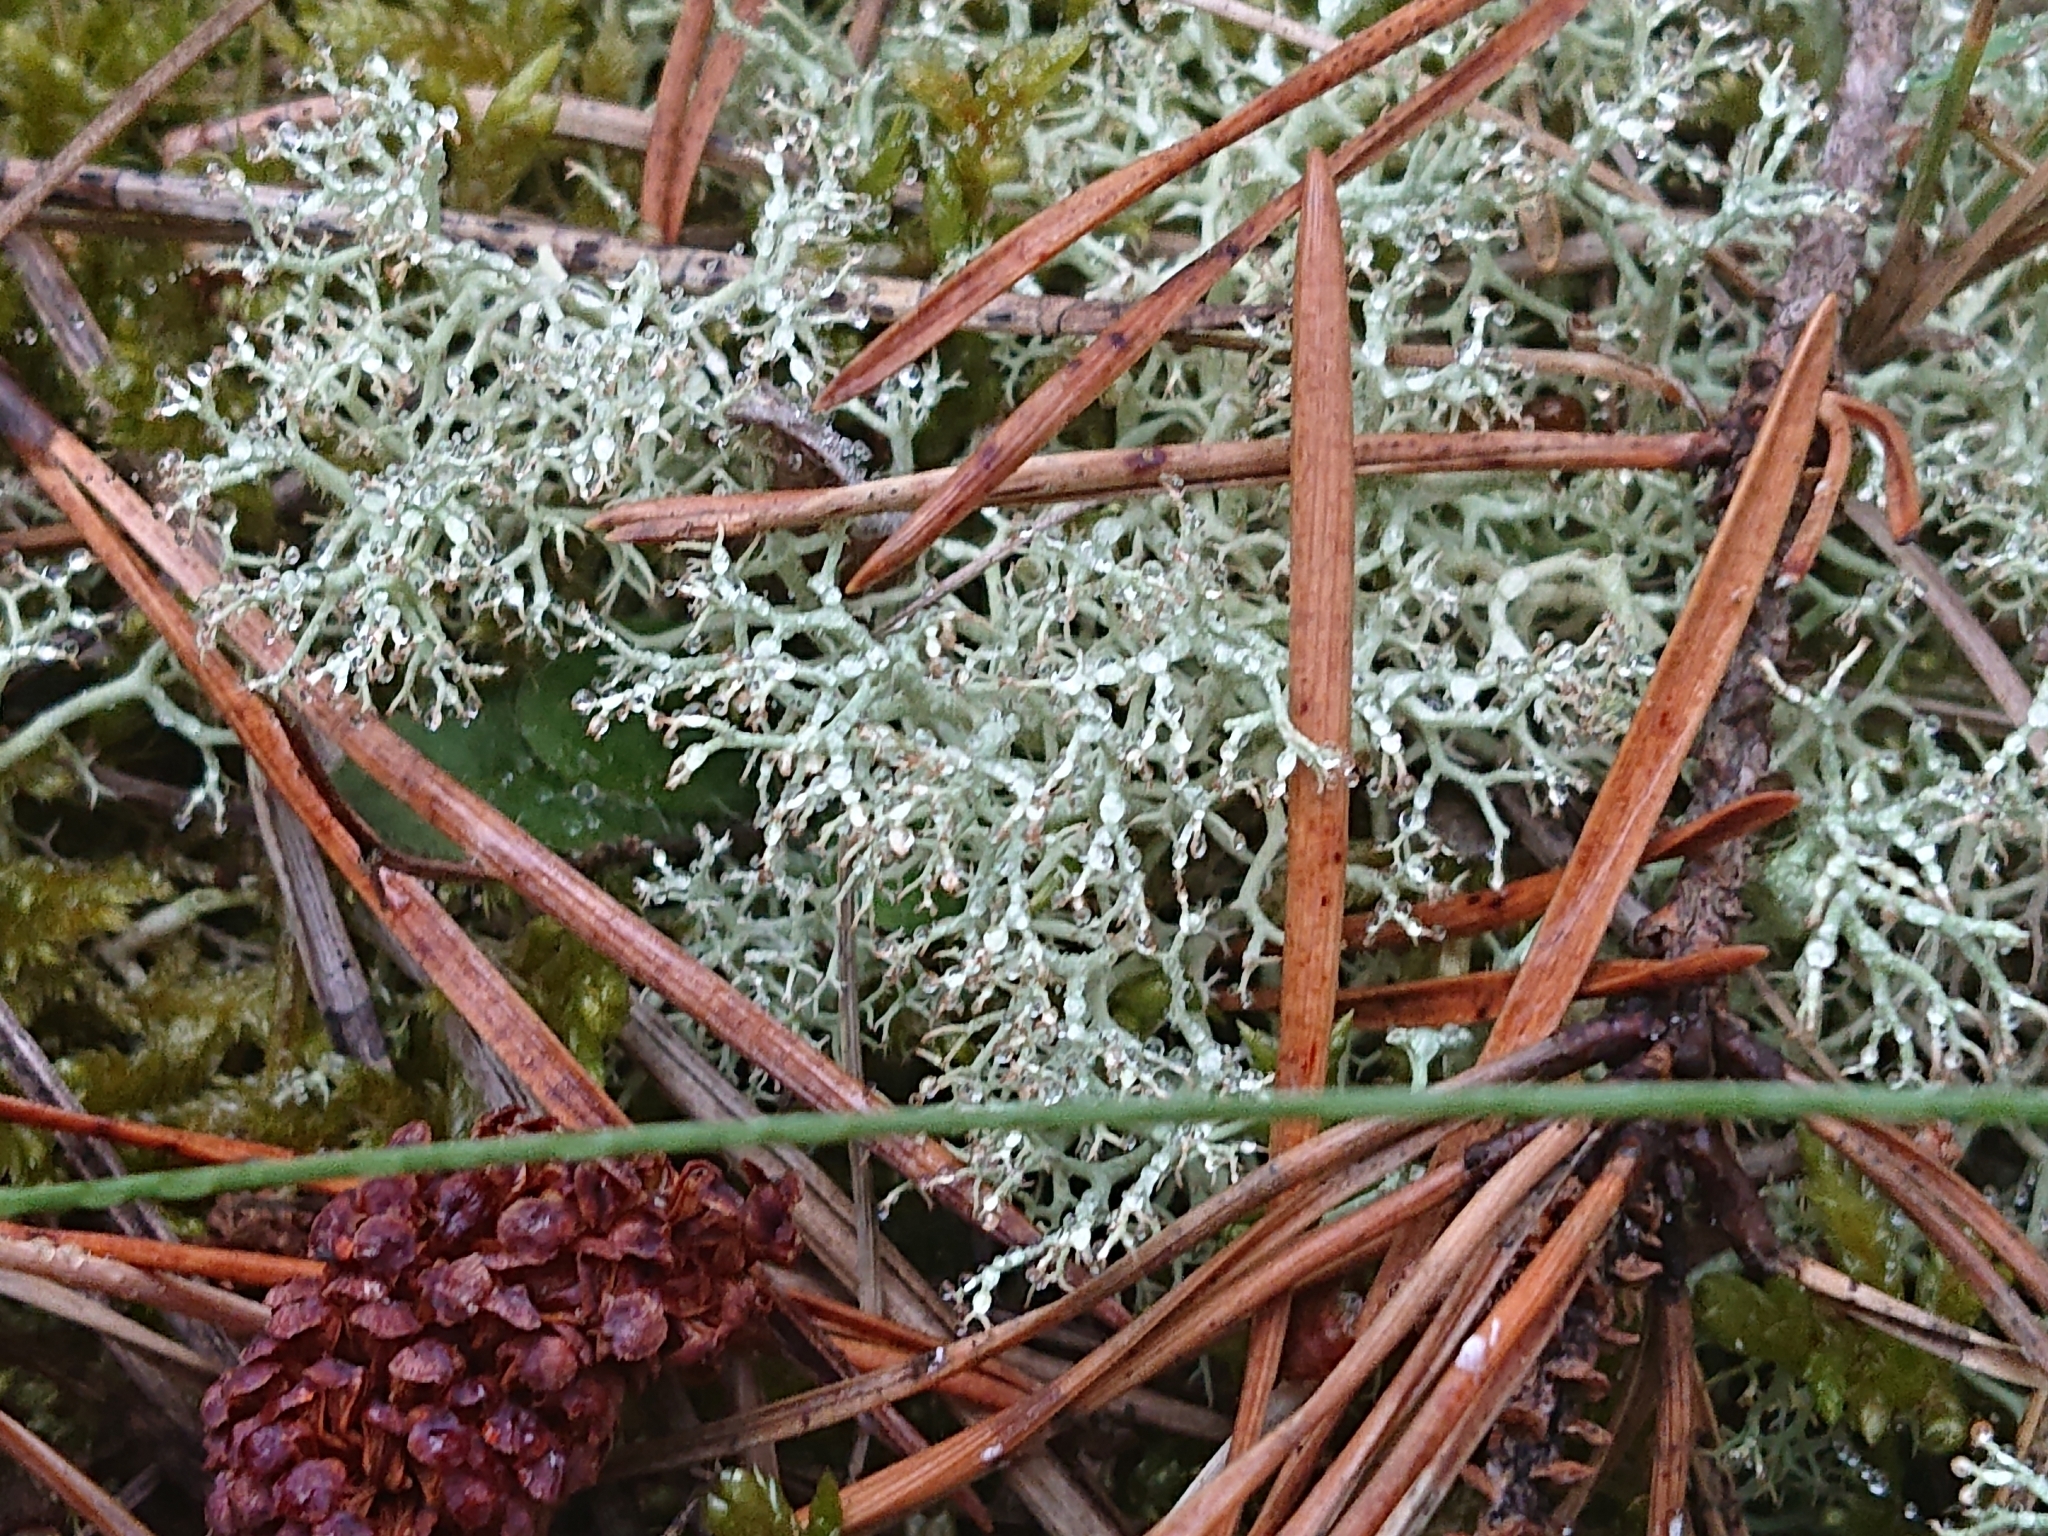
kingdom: Fungi
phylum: Ascomycota
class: Lecanoromycetes
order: Lecanorales
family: Cladoniaceae
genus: Cladonia
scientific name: Cladonia portentosa
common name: Reindeer lichen
